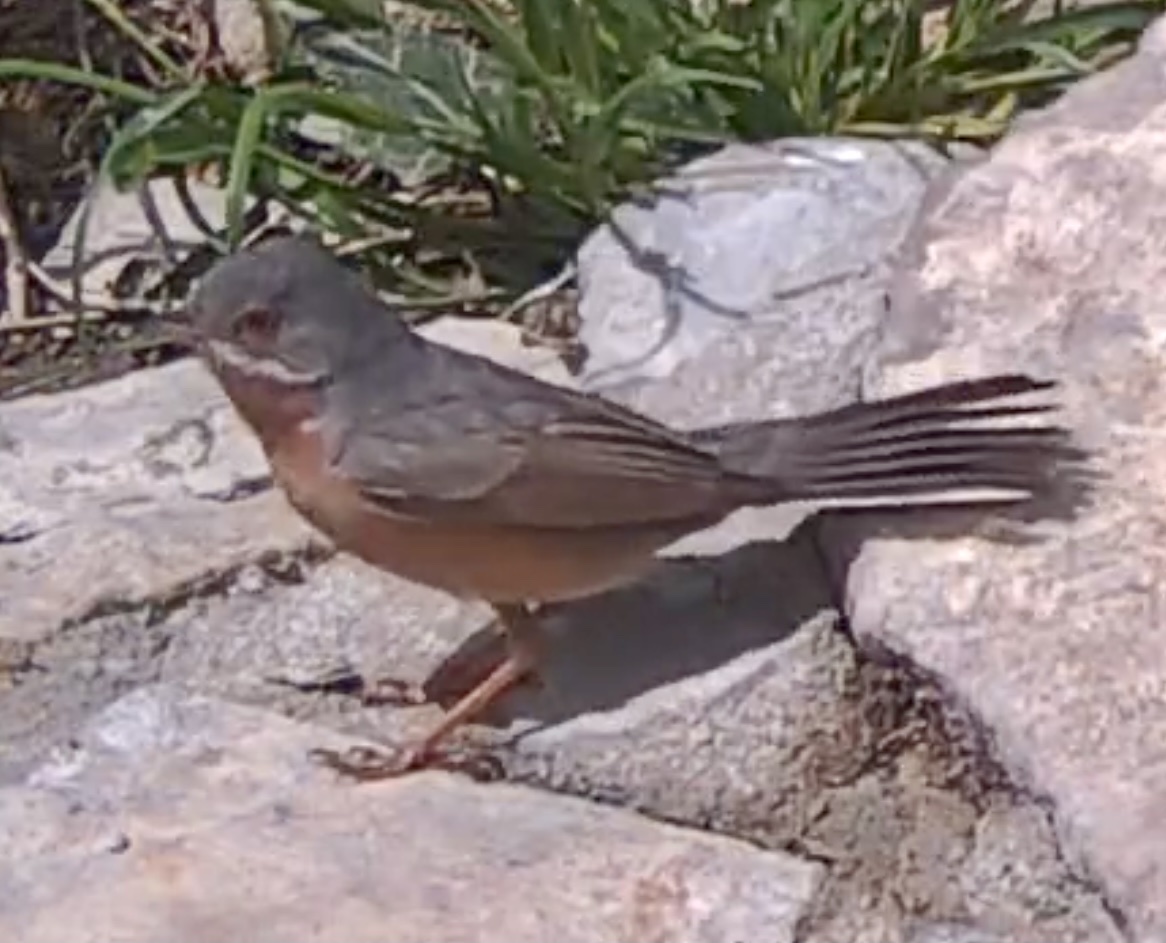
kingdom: Animalia
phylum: Chordata
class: Aves
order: Passeriformes
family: Sylviidae
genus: Curruca
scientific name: Curruca iberiae
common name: Western subalpine warbler
